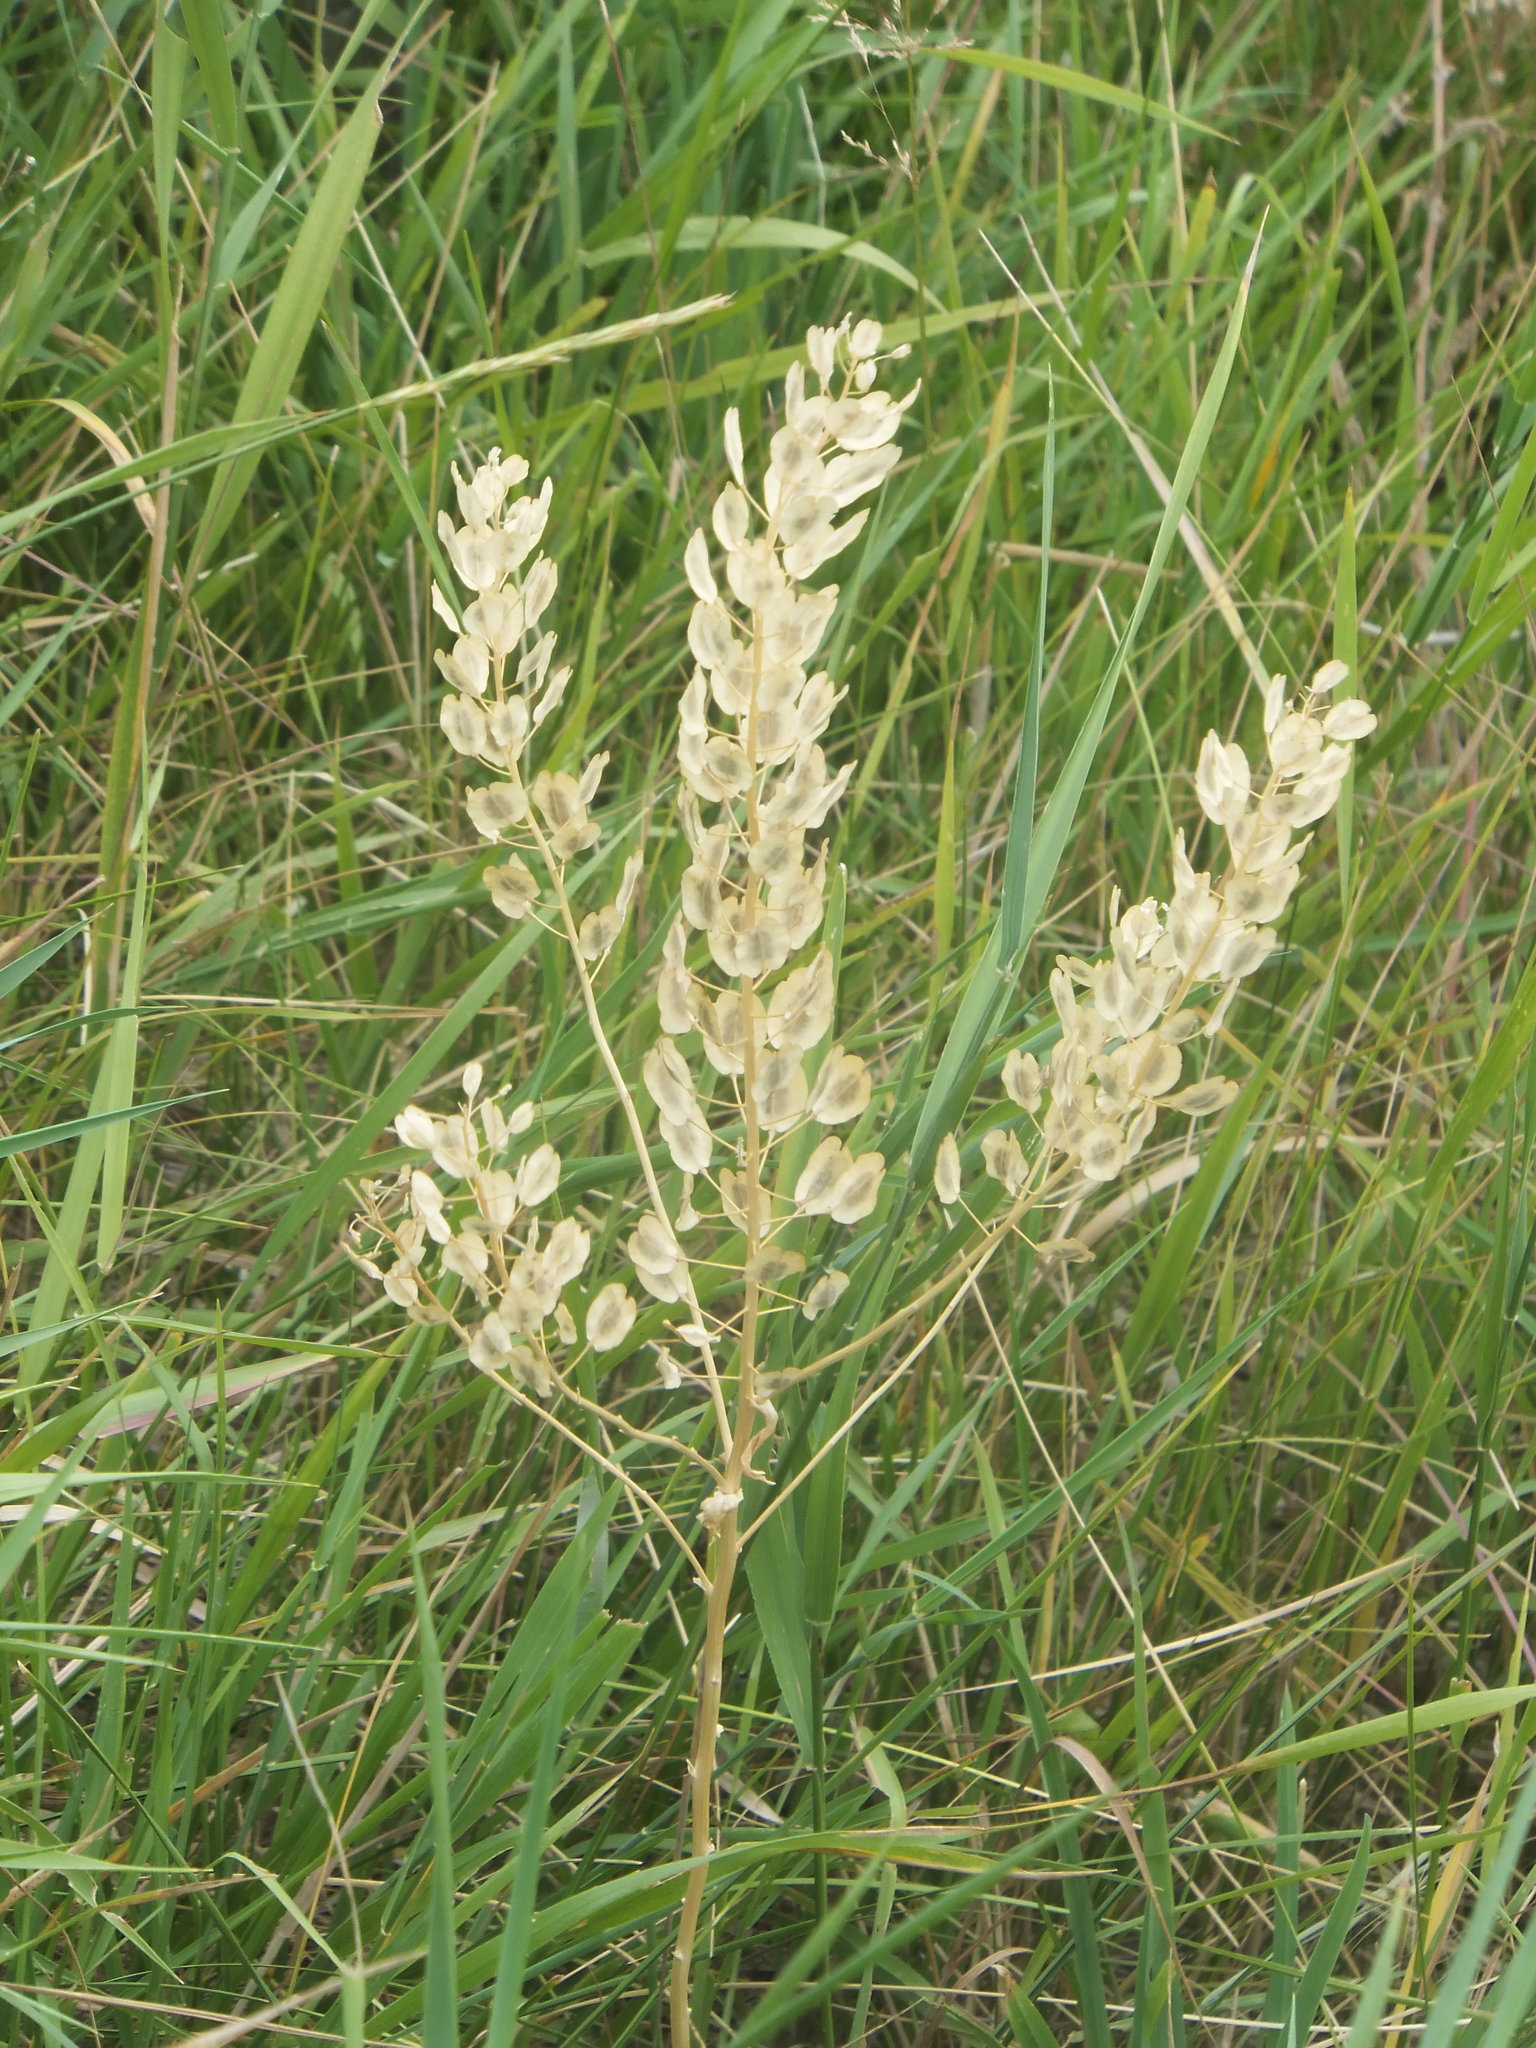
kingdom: Plantae
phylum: Tracheophyta
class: Magnoliopsida
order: Brassicales
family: Brassicaceae
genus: Thlaspi
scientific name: Thlaspi arvense
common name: Field pennycress
